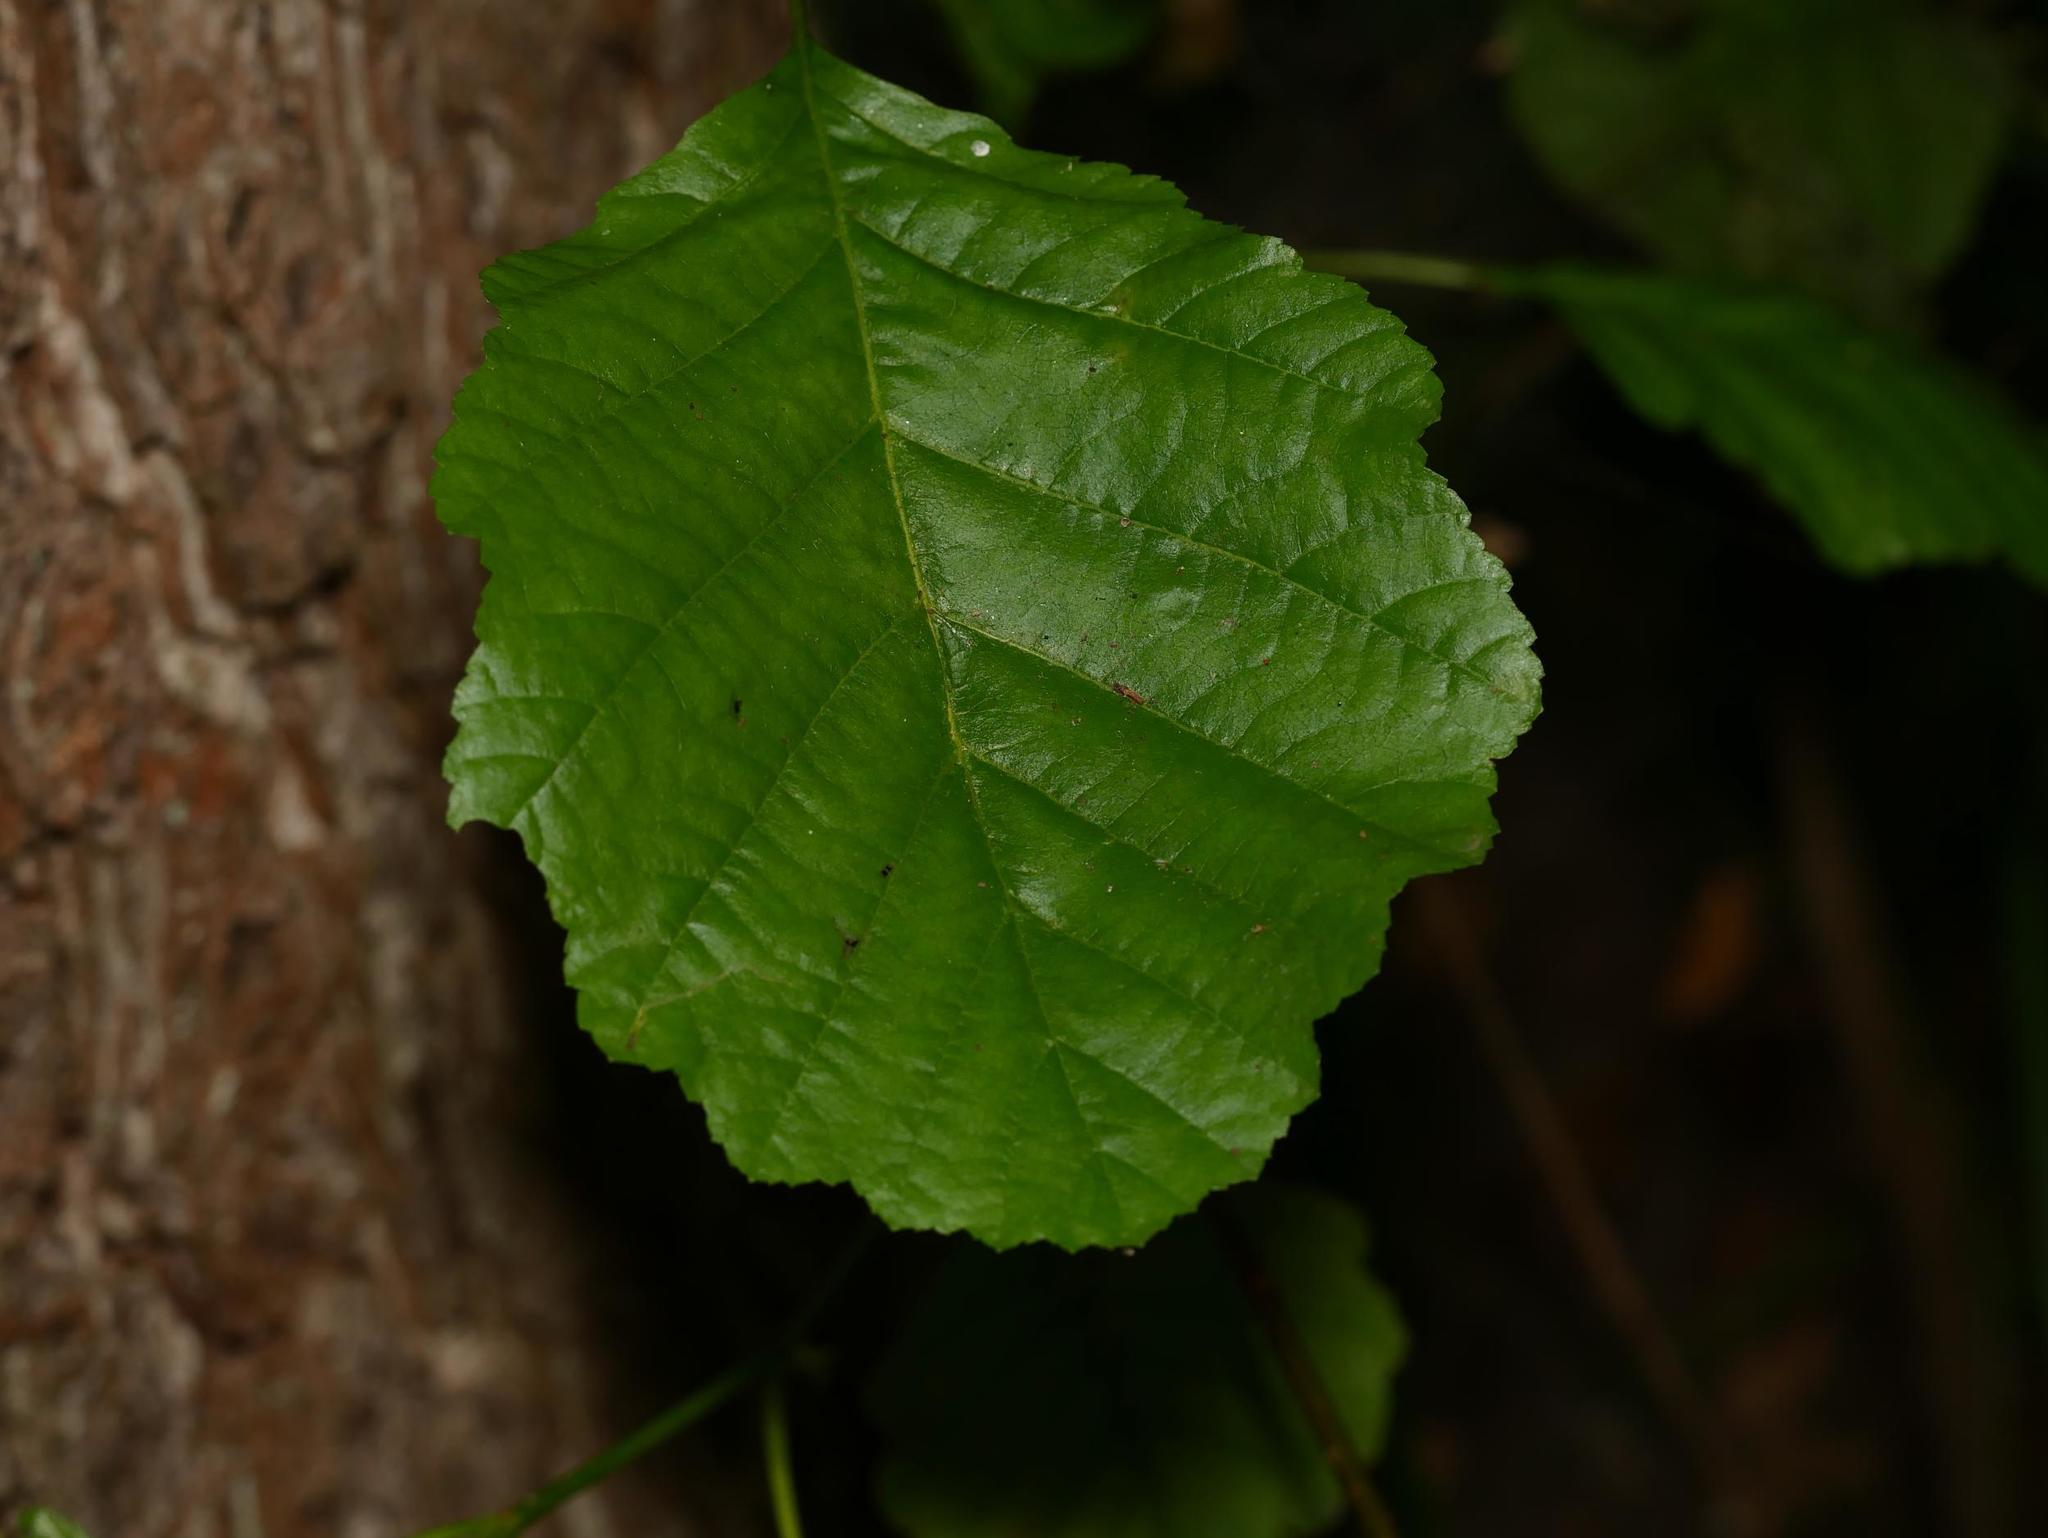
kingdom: Plantae
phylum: Tracheophyta
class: Magnoliopsida
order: Fagales
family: Betulaceae
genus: Alnus
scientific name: Alnus glutinosa
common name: Black alder
